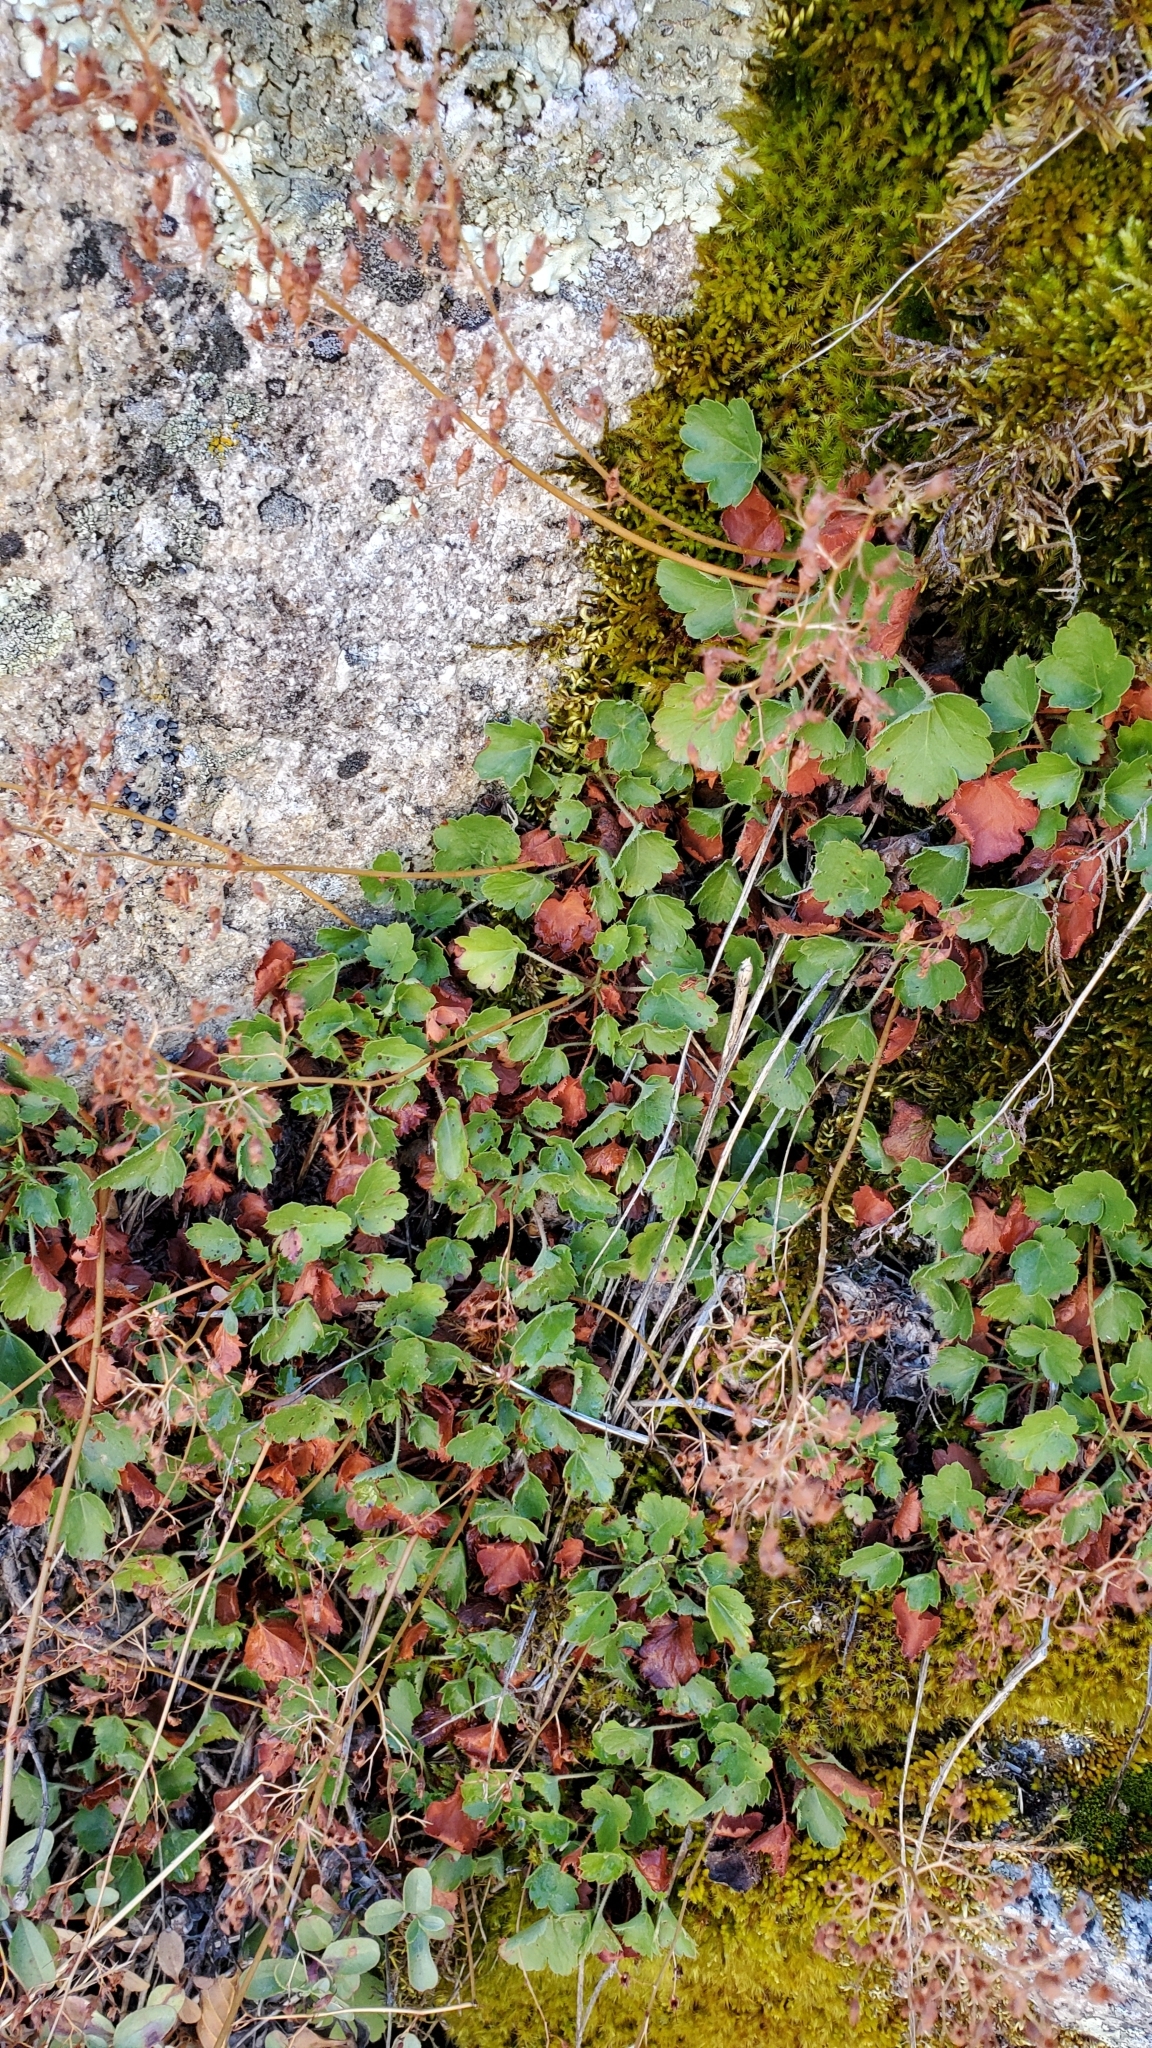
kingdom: Plantae
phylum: Tracheophyta
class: Magnoliopsida
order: Saxifragales
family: Saxifragaceae
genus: Heuchera
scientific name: Heuchera rubescens
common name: Jack-o'the-rocks
